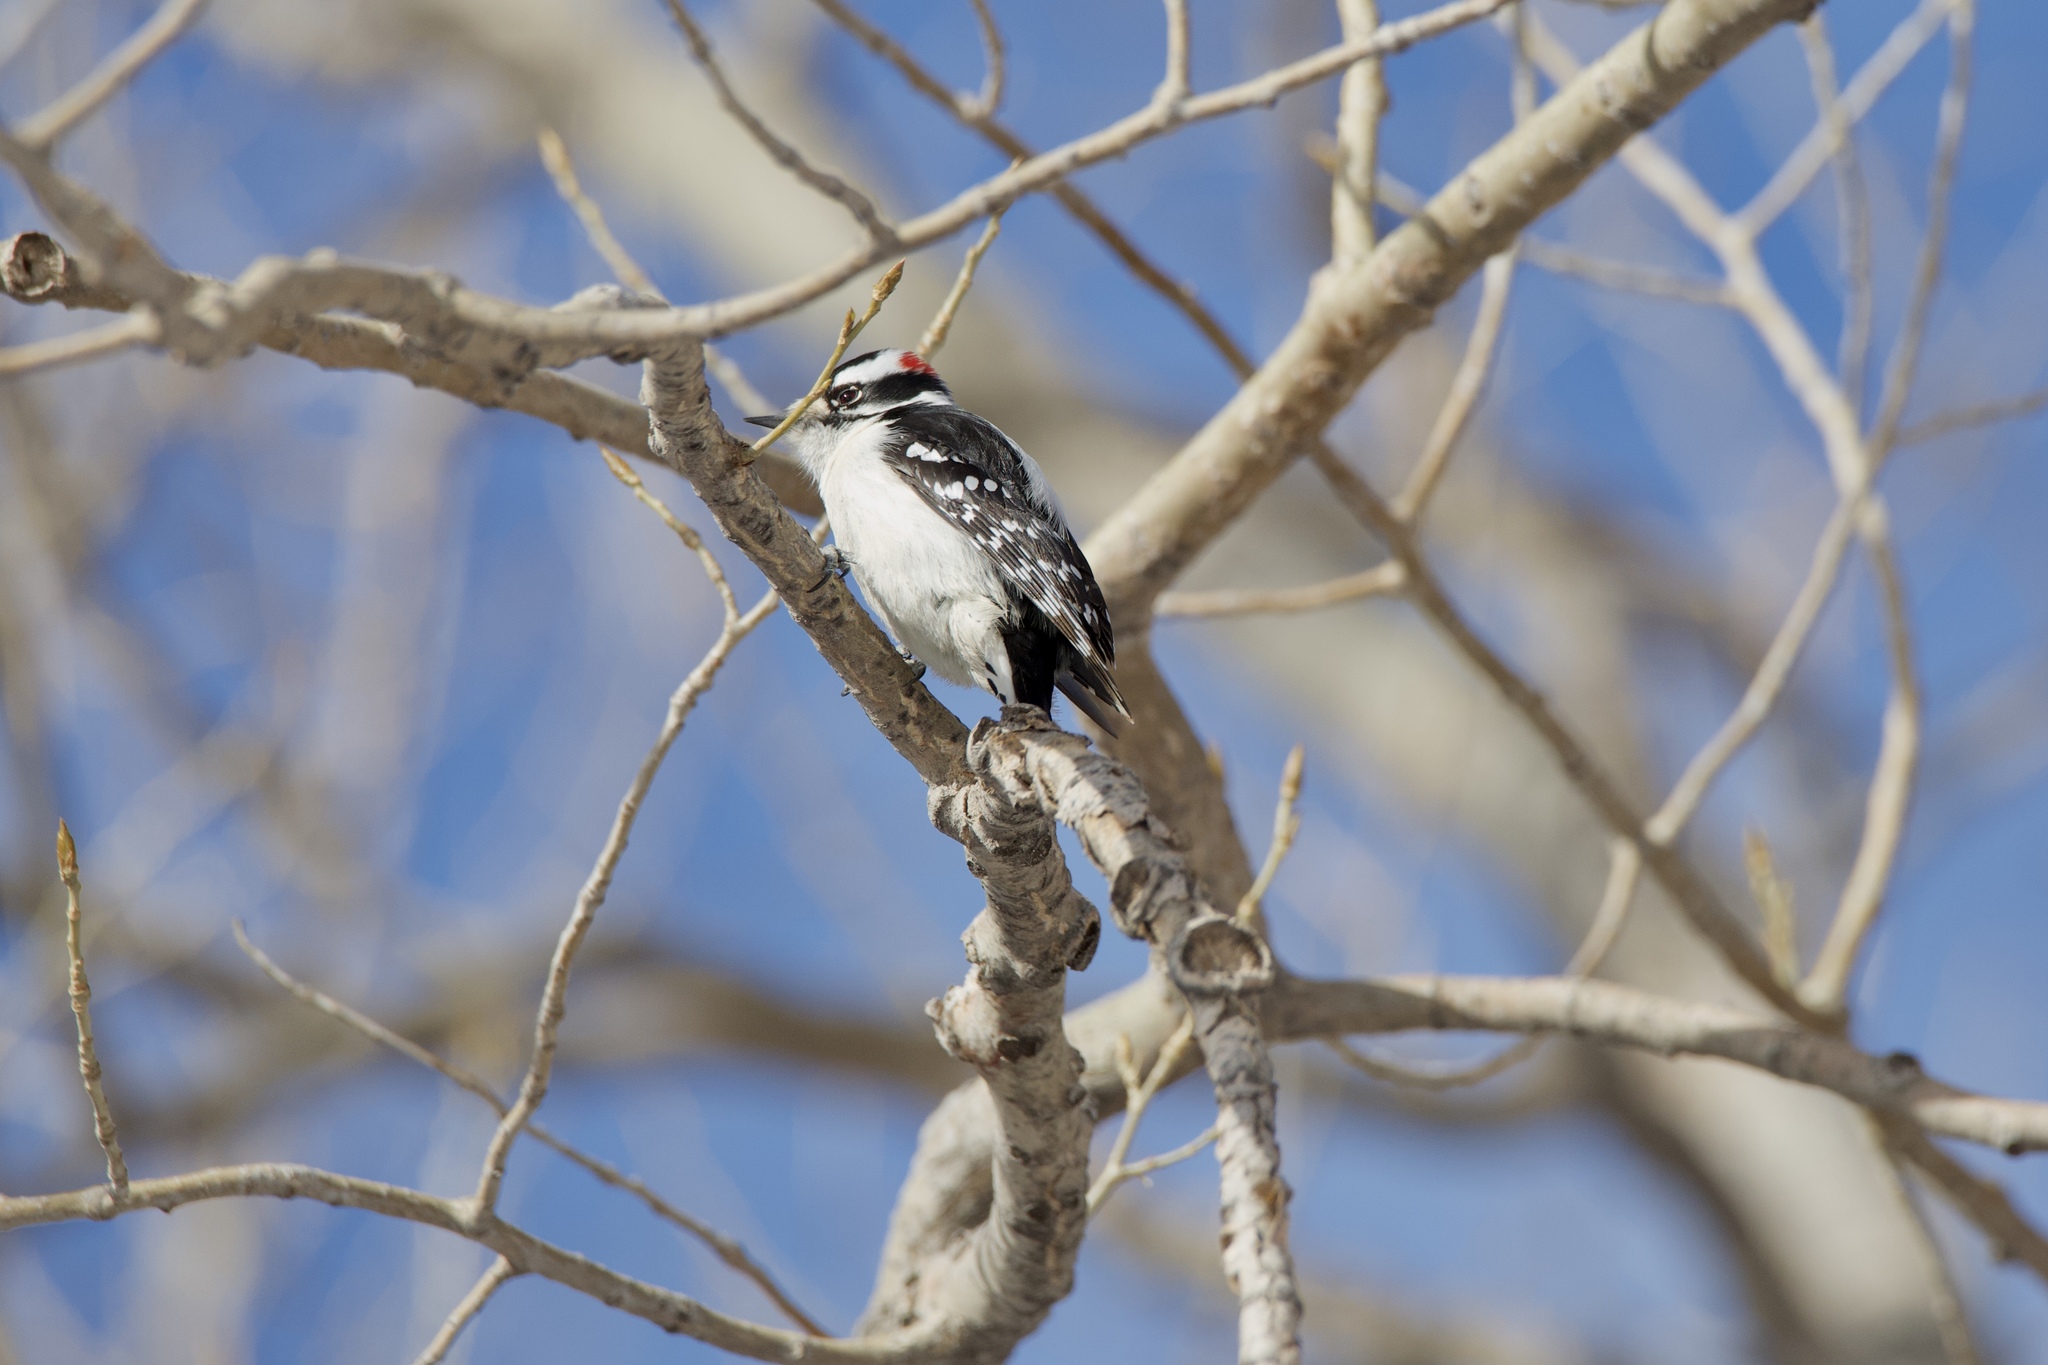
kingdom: Animalia
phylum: Chordata
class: Aves
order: Piciformes
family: Picidae
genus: Dryobates
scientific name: Dryobates pubescens
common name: Downy woodpecker
